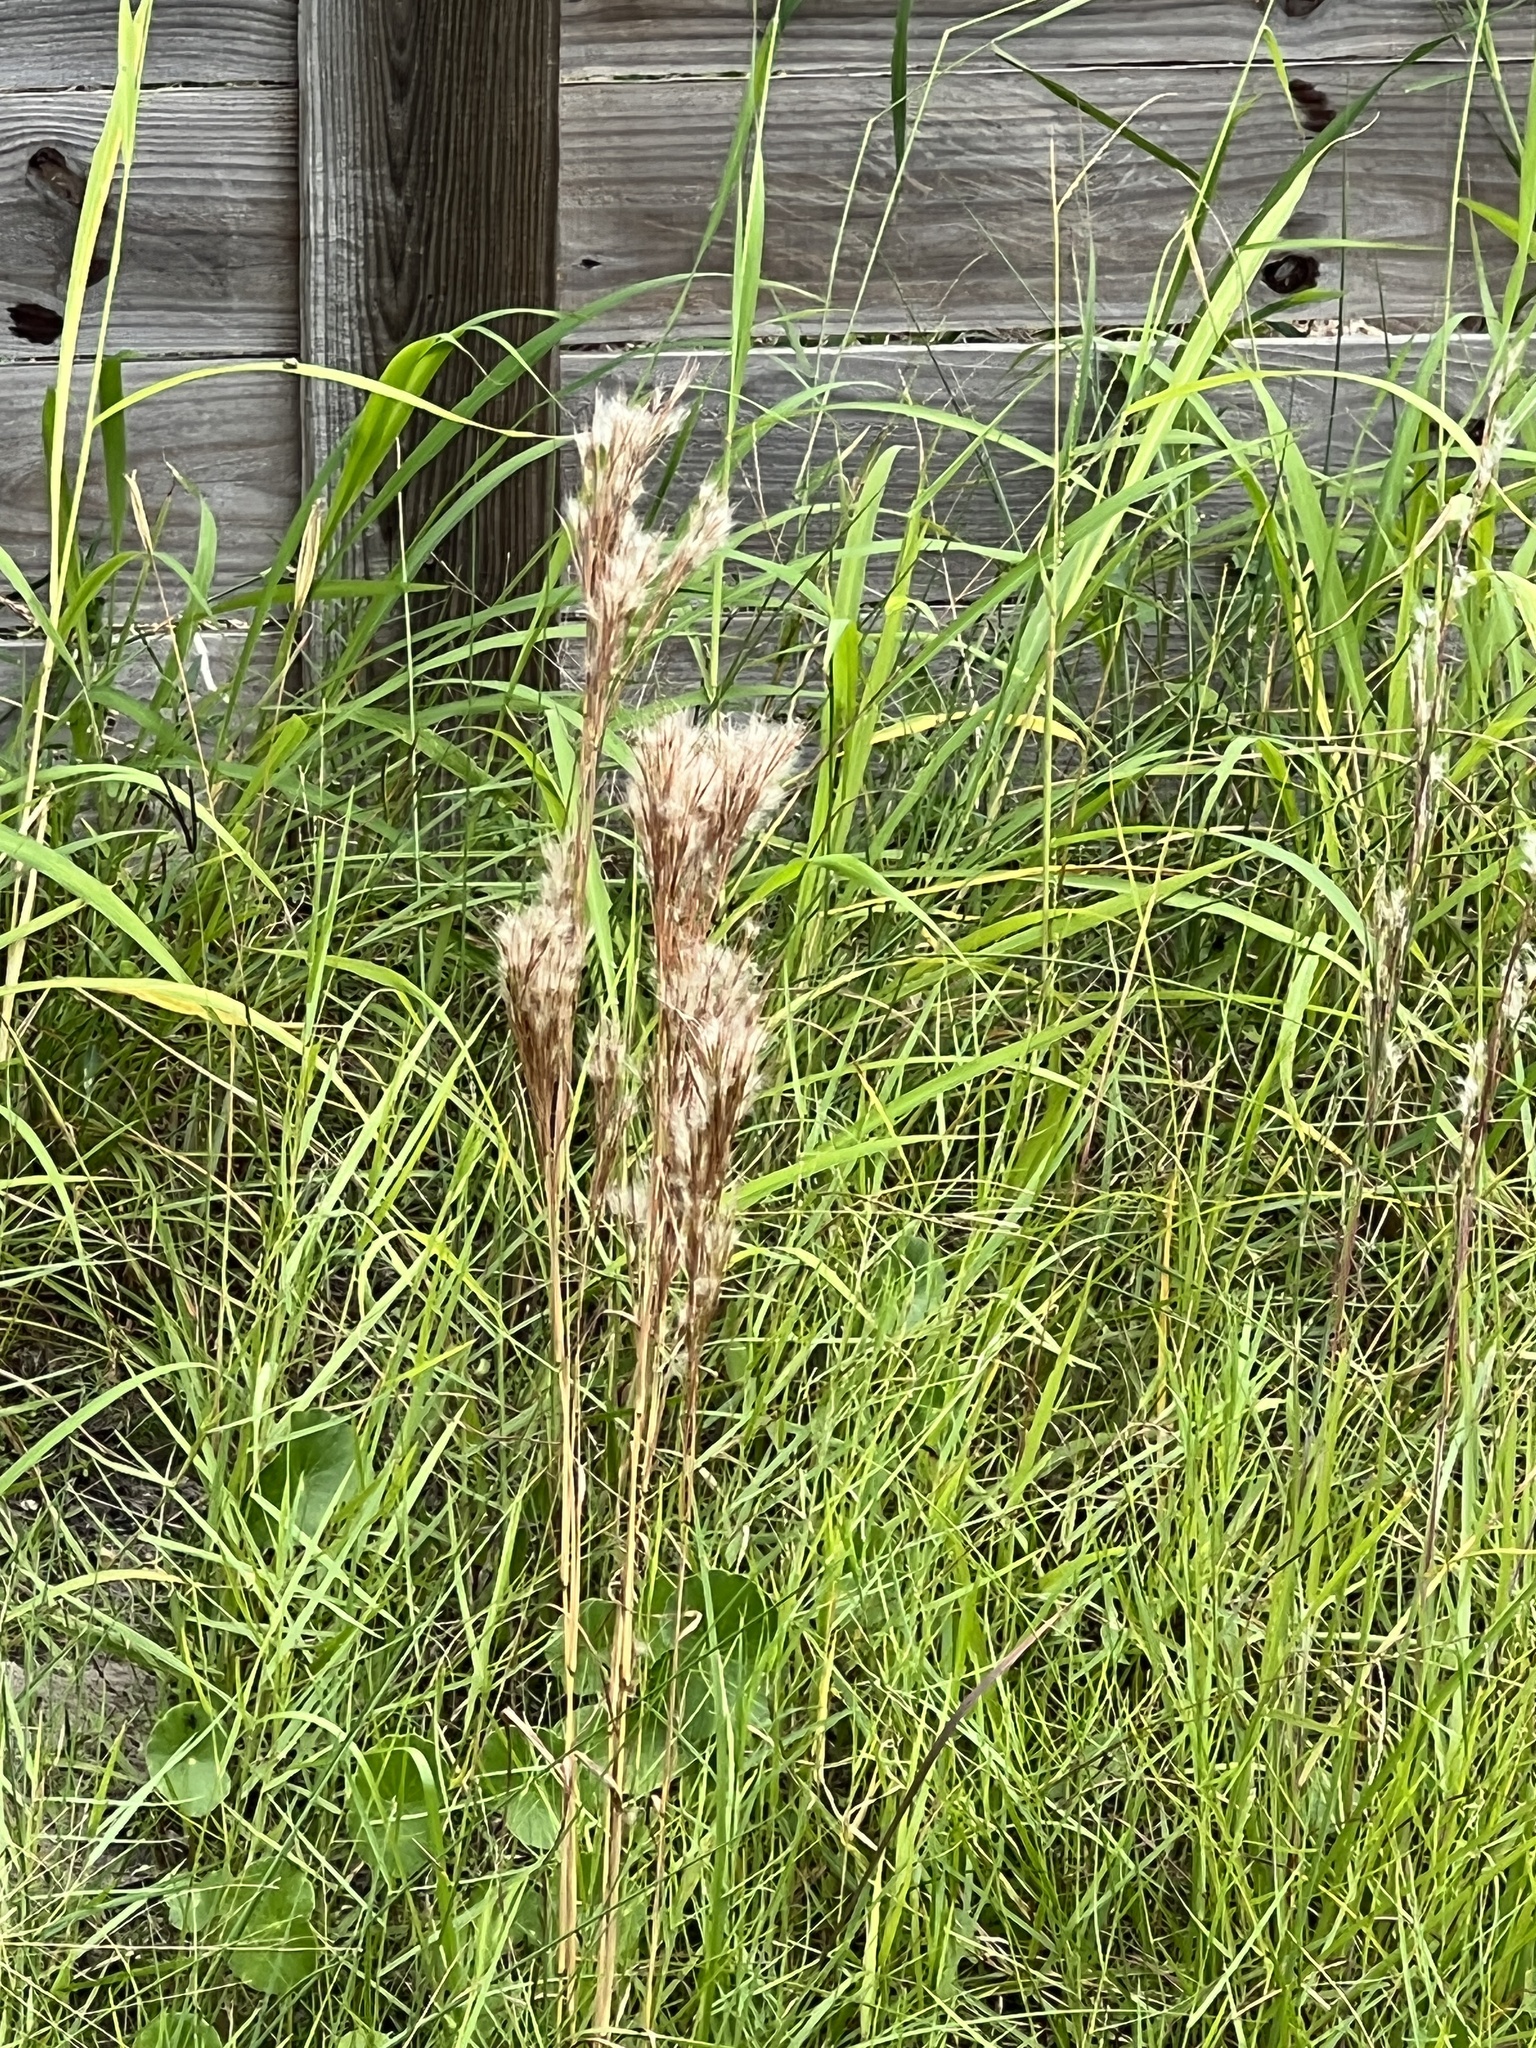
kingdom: Plantae
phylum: Tracheophyta
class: Liliopsida
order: Poales
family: Poaceae
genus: Andropogon
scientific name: Andropogon tenuispatheus
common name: Bushy bluestem
